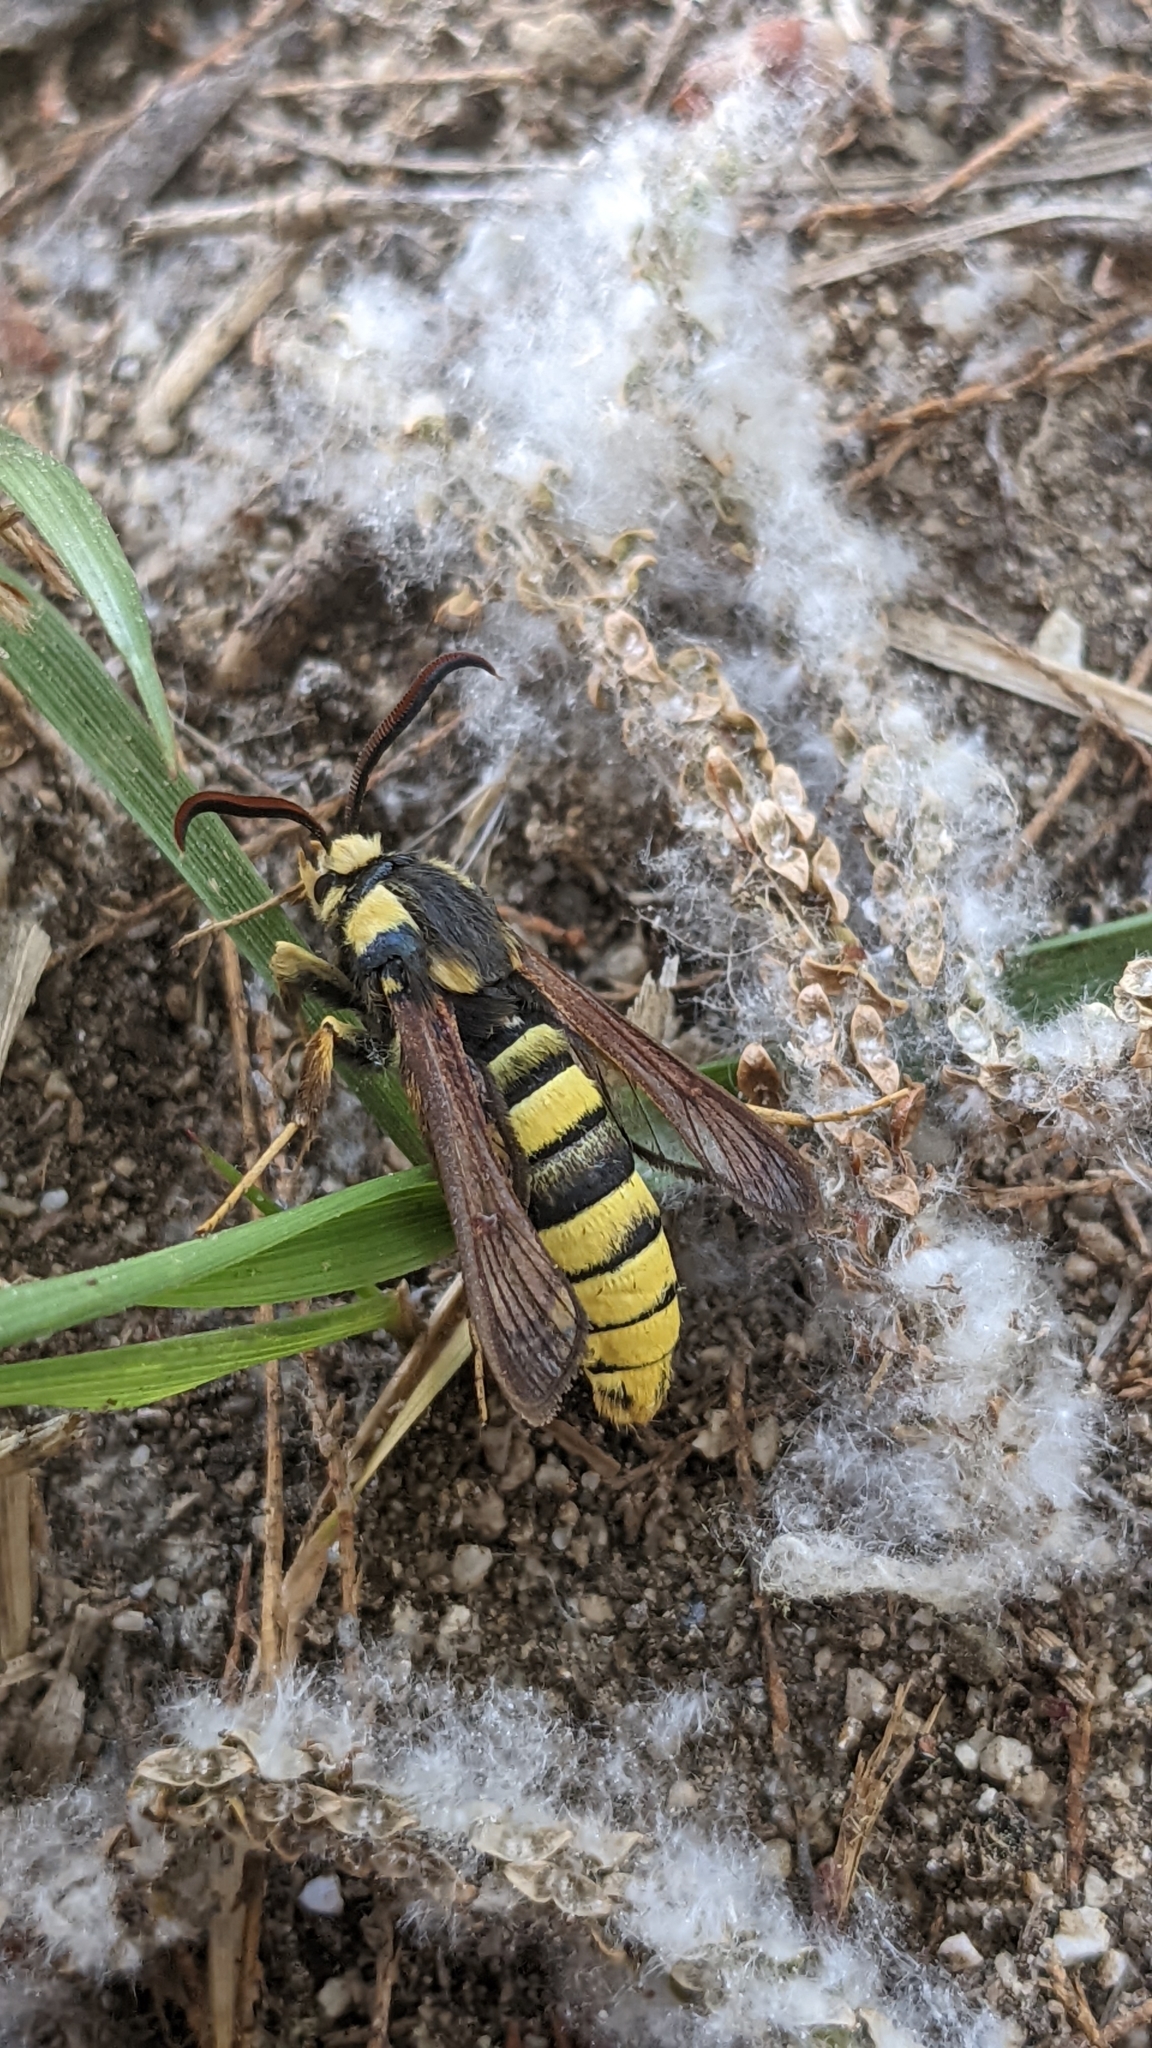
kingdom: Animalia
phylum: Arthropoda
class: Insecta
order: Lepidoptera
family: Sesiidae
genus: Sesia
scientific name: Sesia apiformis
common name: Hornet moth
